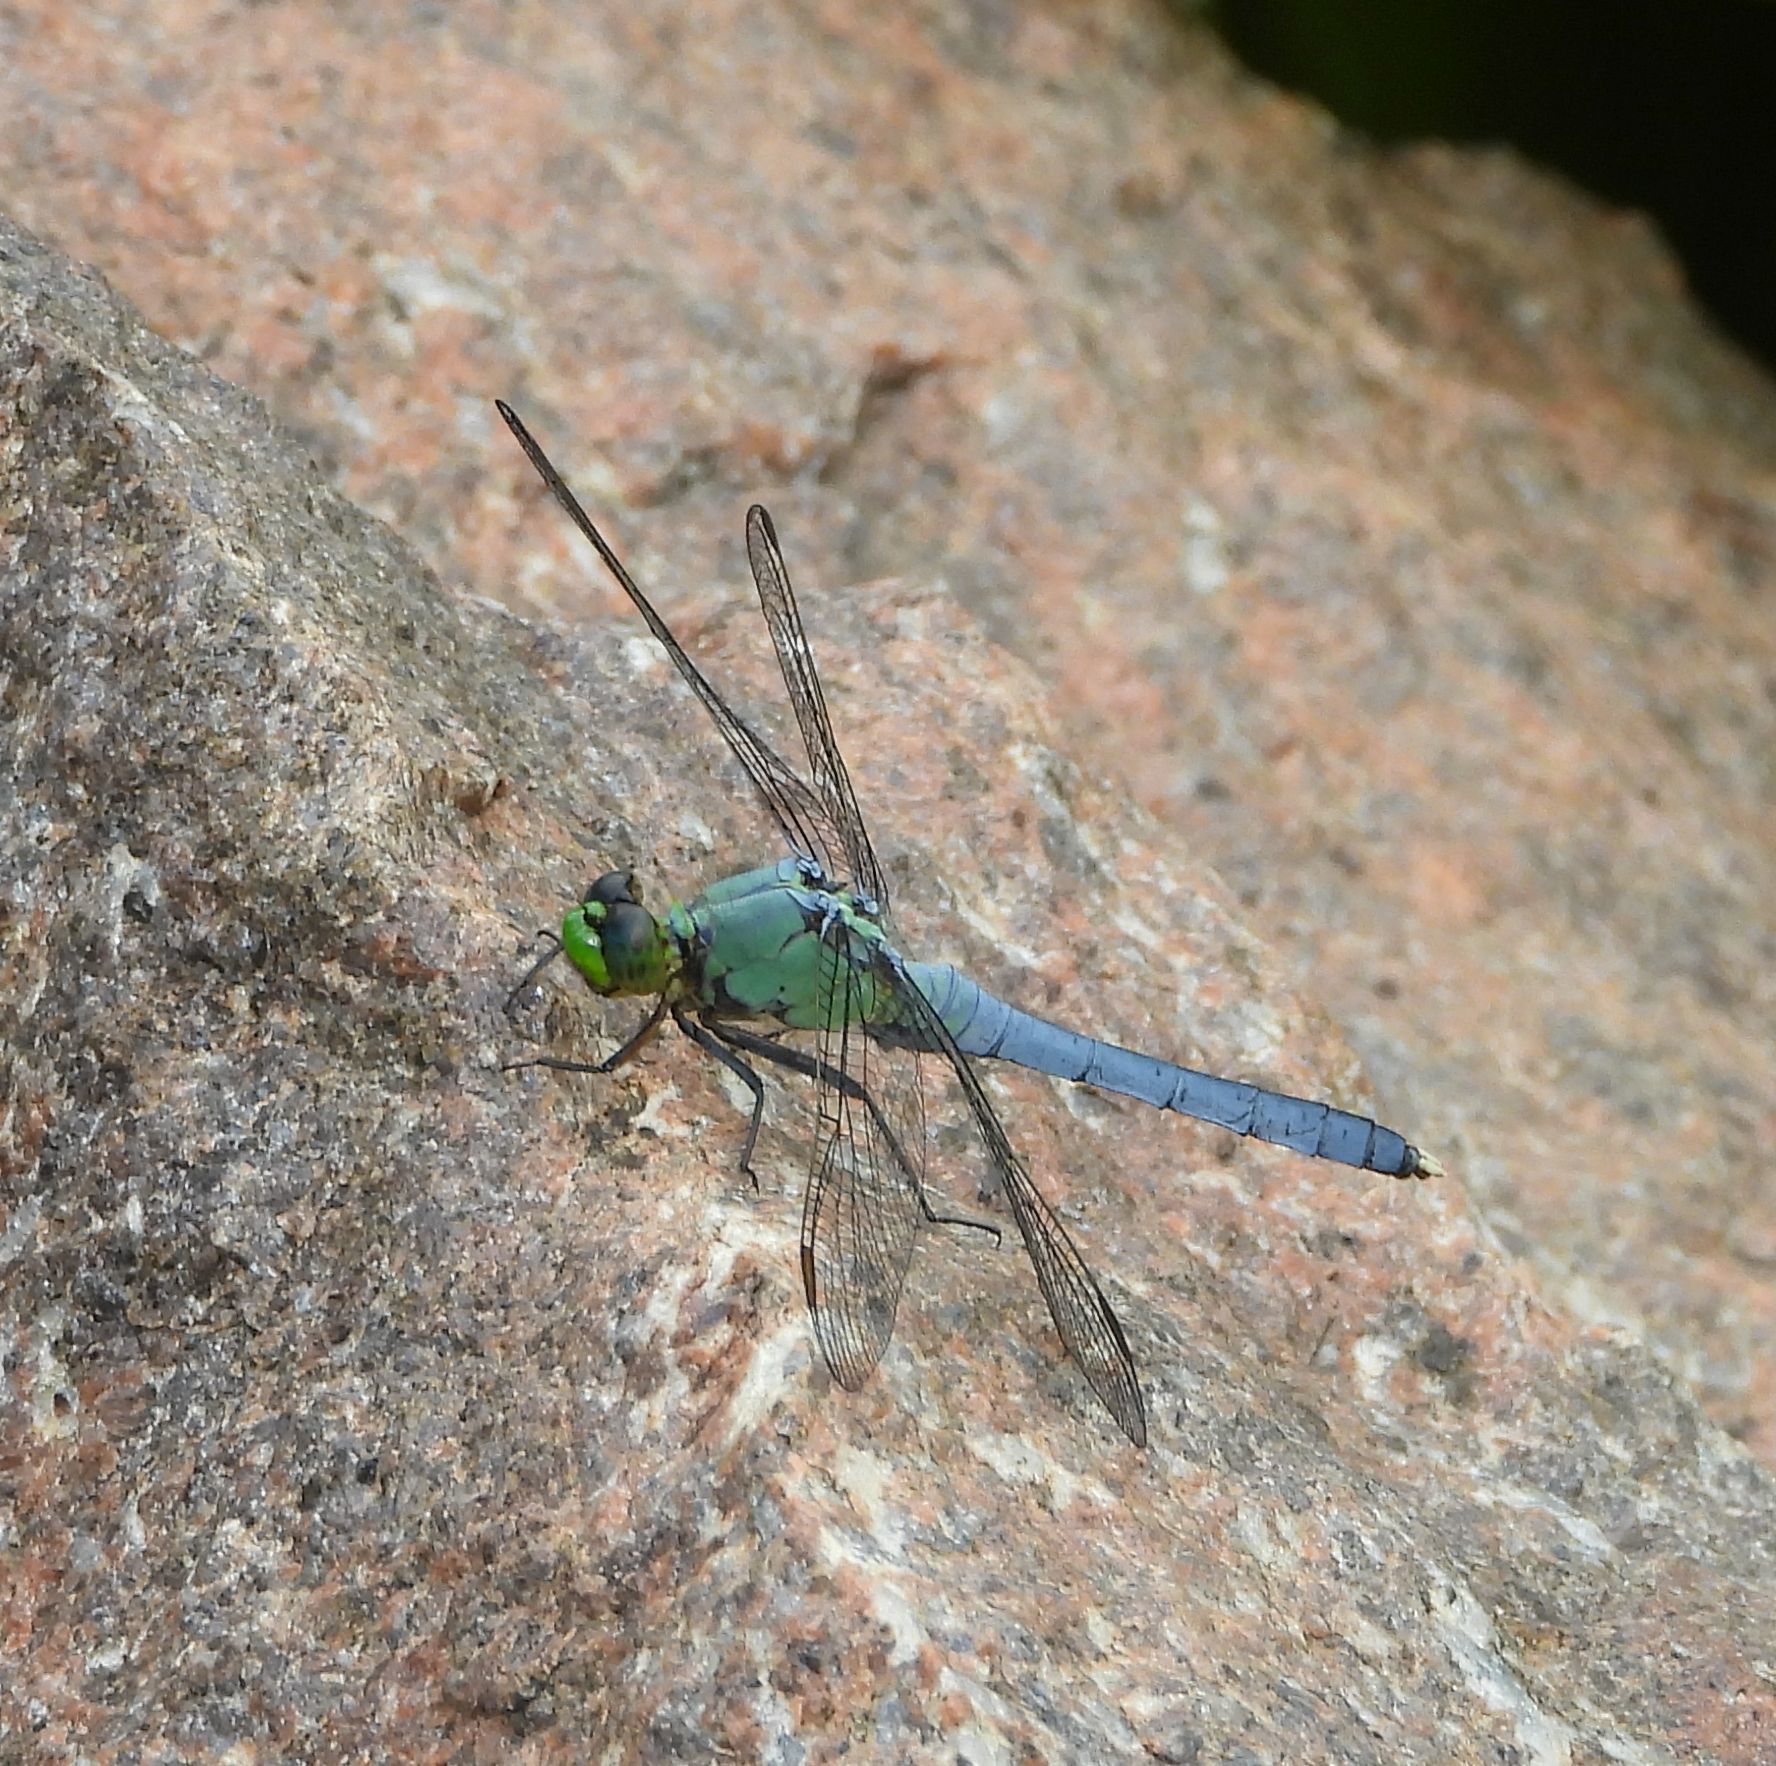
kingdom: Animalia
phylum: Arthropoda
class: Insecta
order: Odonata
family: Libellulidae
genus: Erythemis
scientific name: Erythemis simplicicollis
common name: Eastern pondhawk
